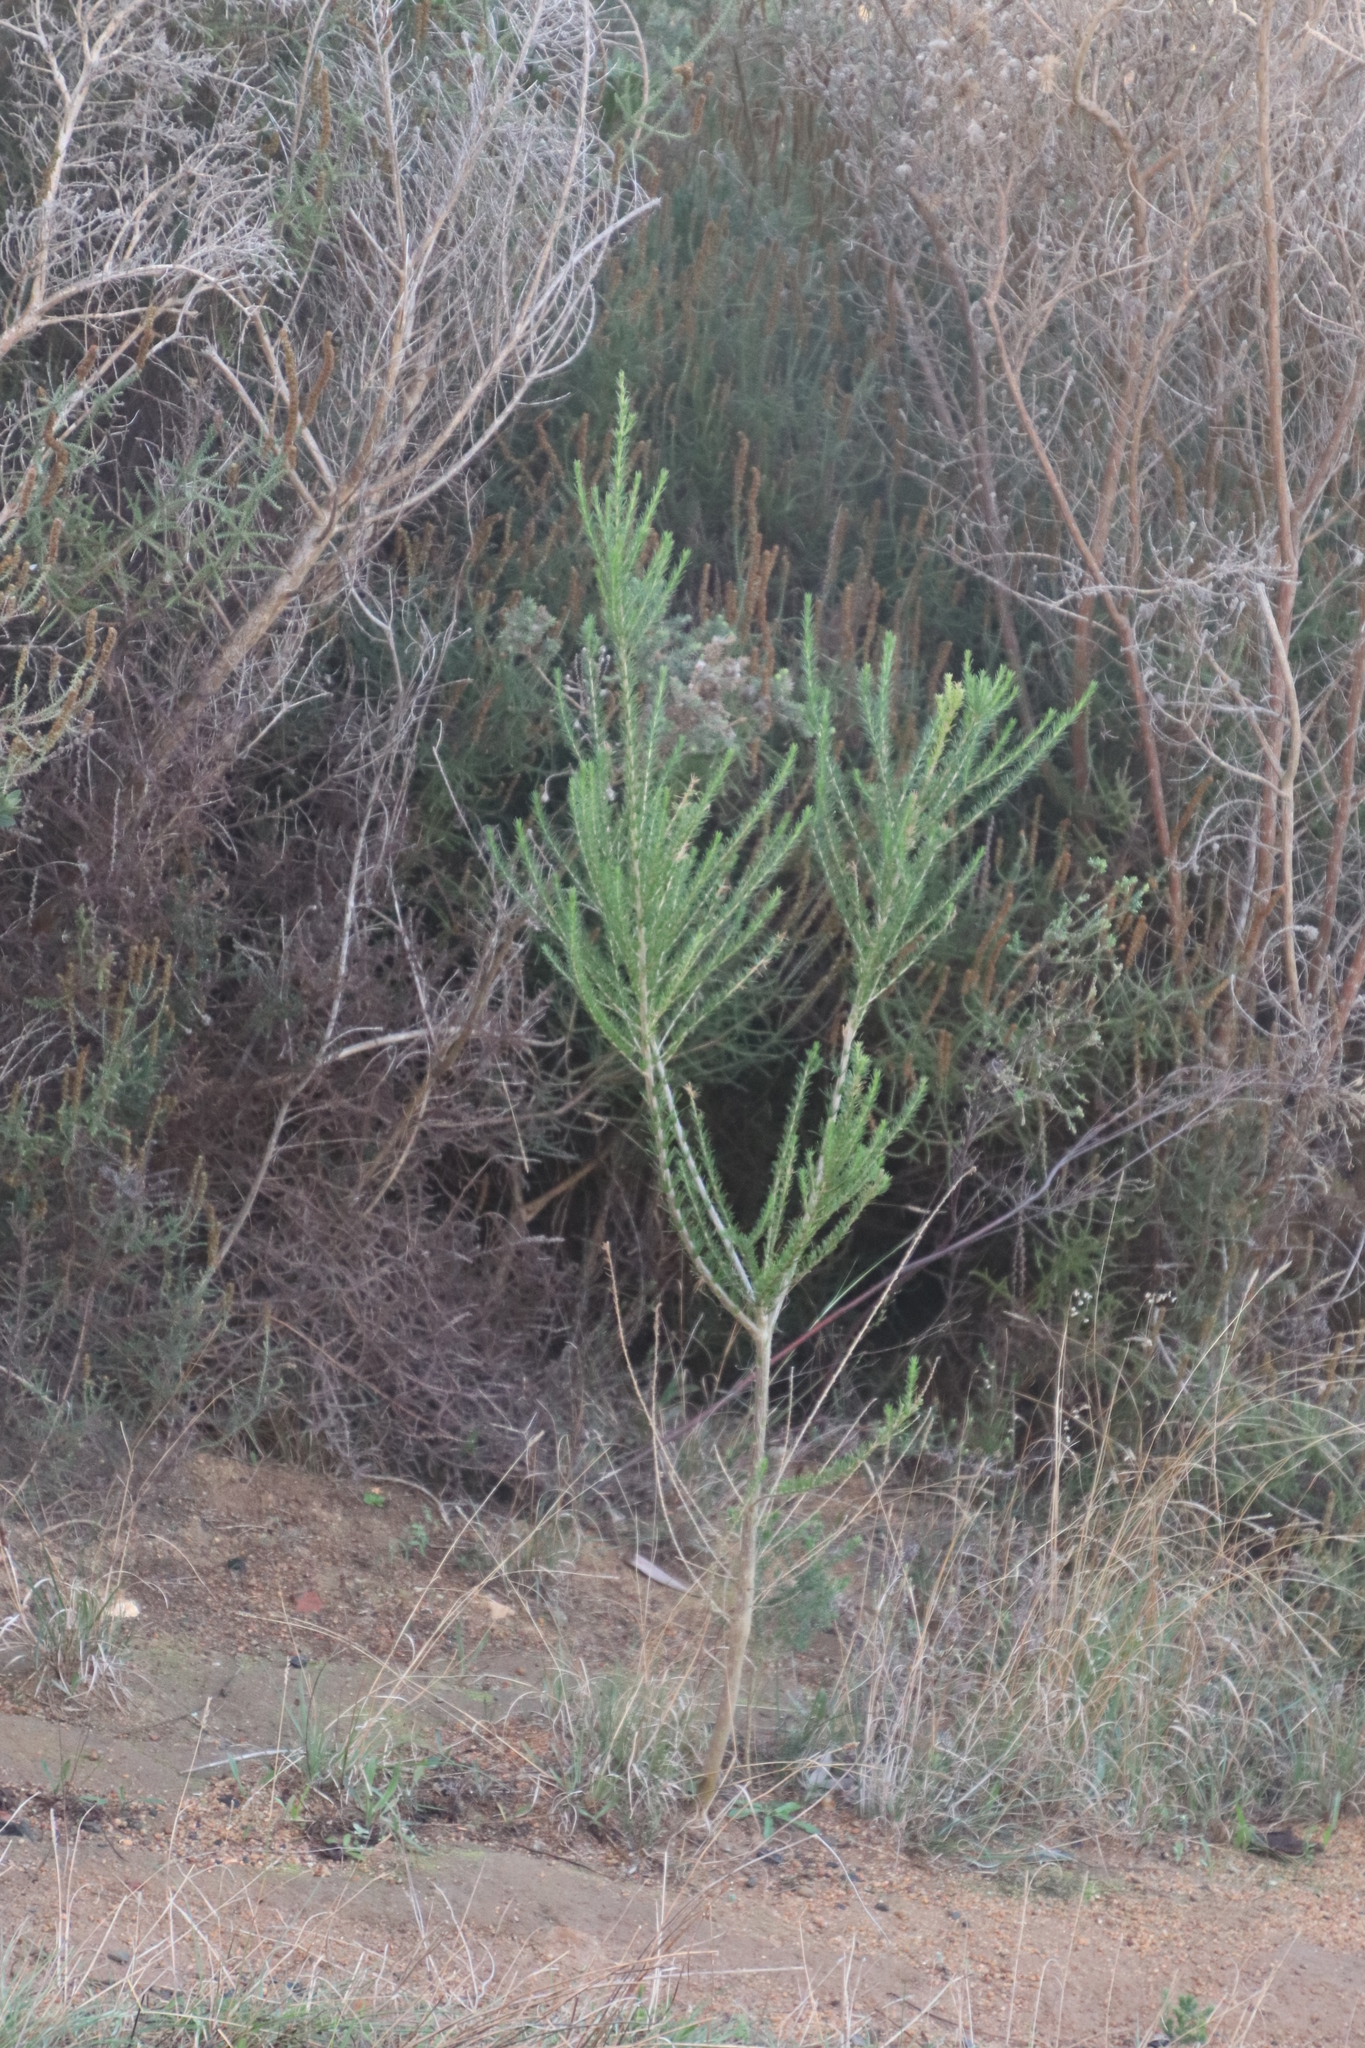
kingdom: Plantae
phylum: Tracheophyta
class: Magnoliopsida
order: Fabales
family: Fabaceae
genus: Aspalathus
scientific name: Aspalathus macrantha
